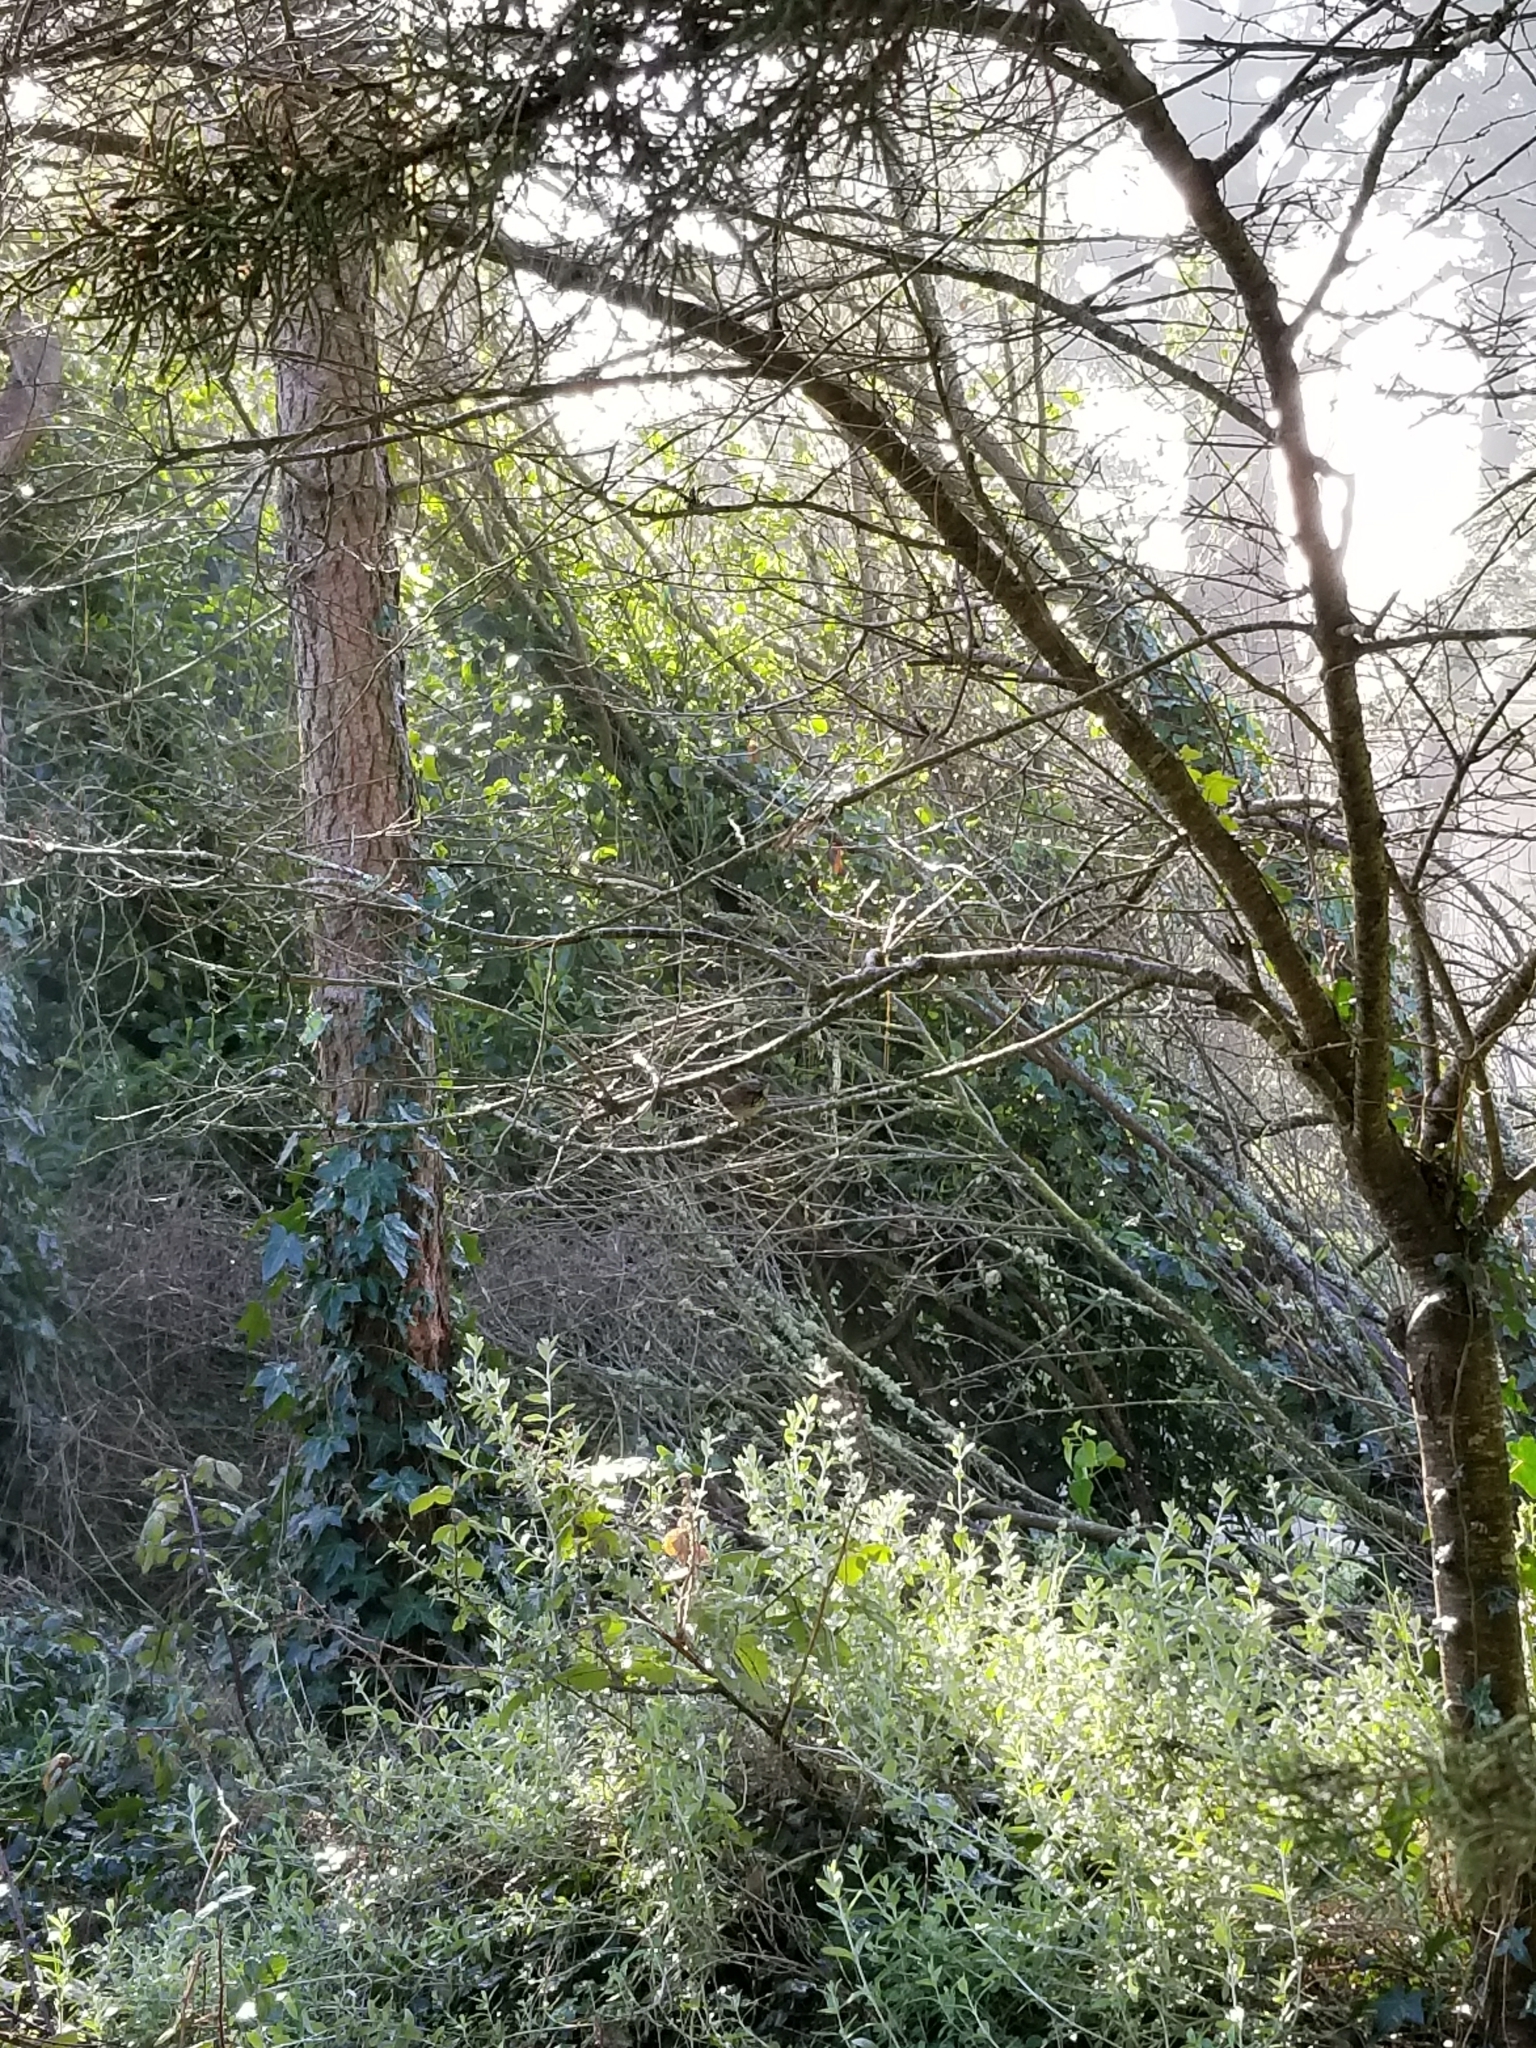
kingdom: Animalia
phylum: Chordata
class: Aves
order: Passeriformes
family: Passerellidae
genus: Melospiza
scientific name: Melospiza melodia
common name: Song sparrow
